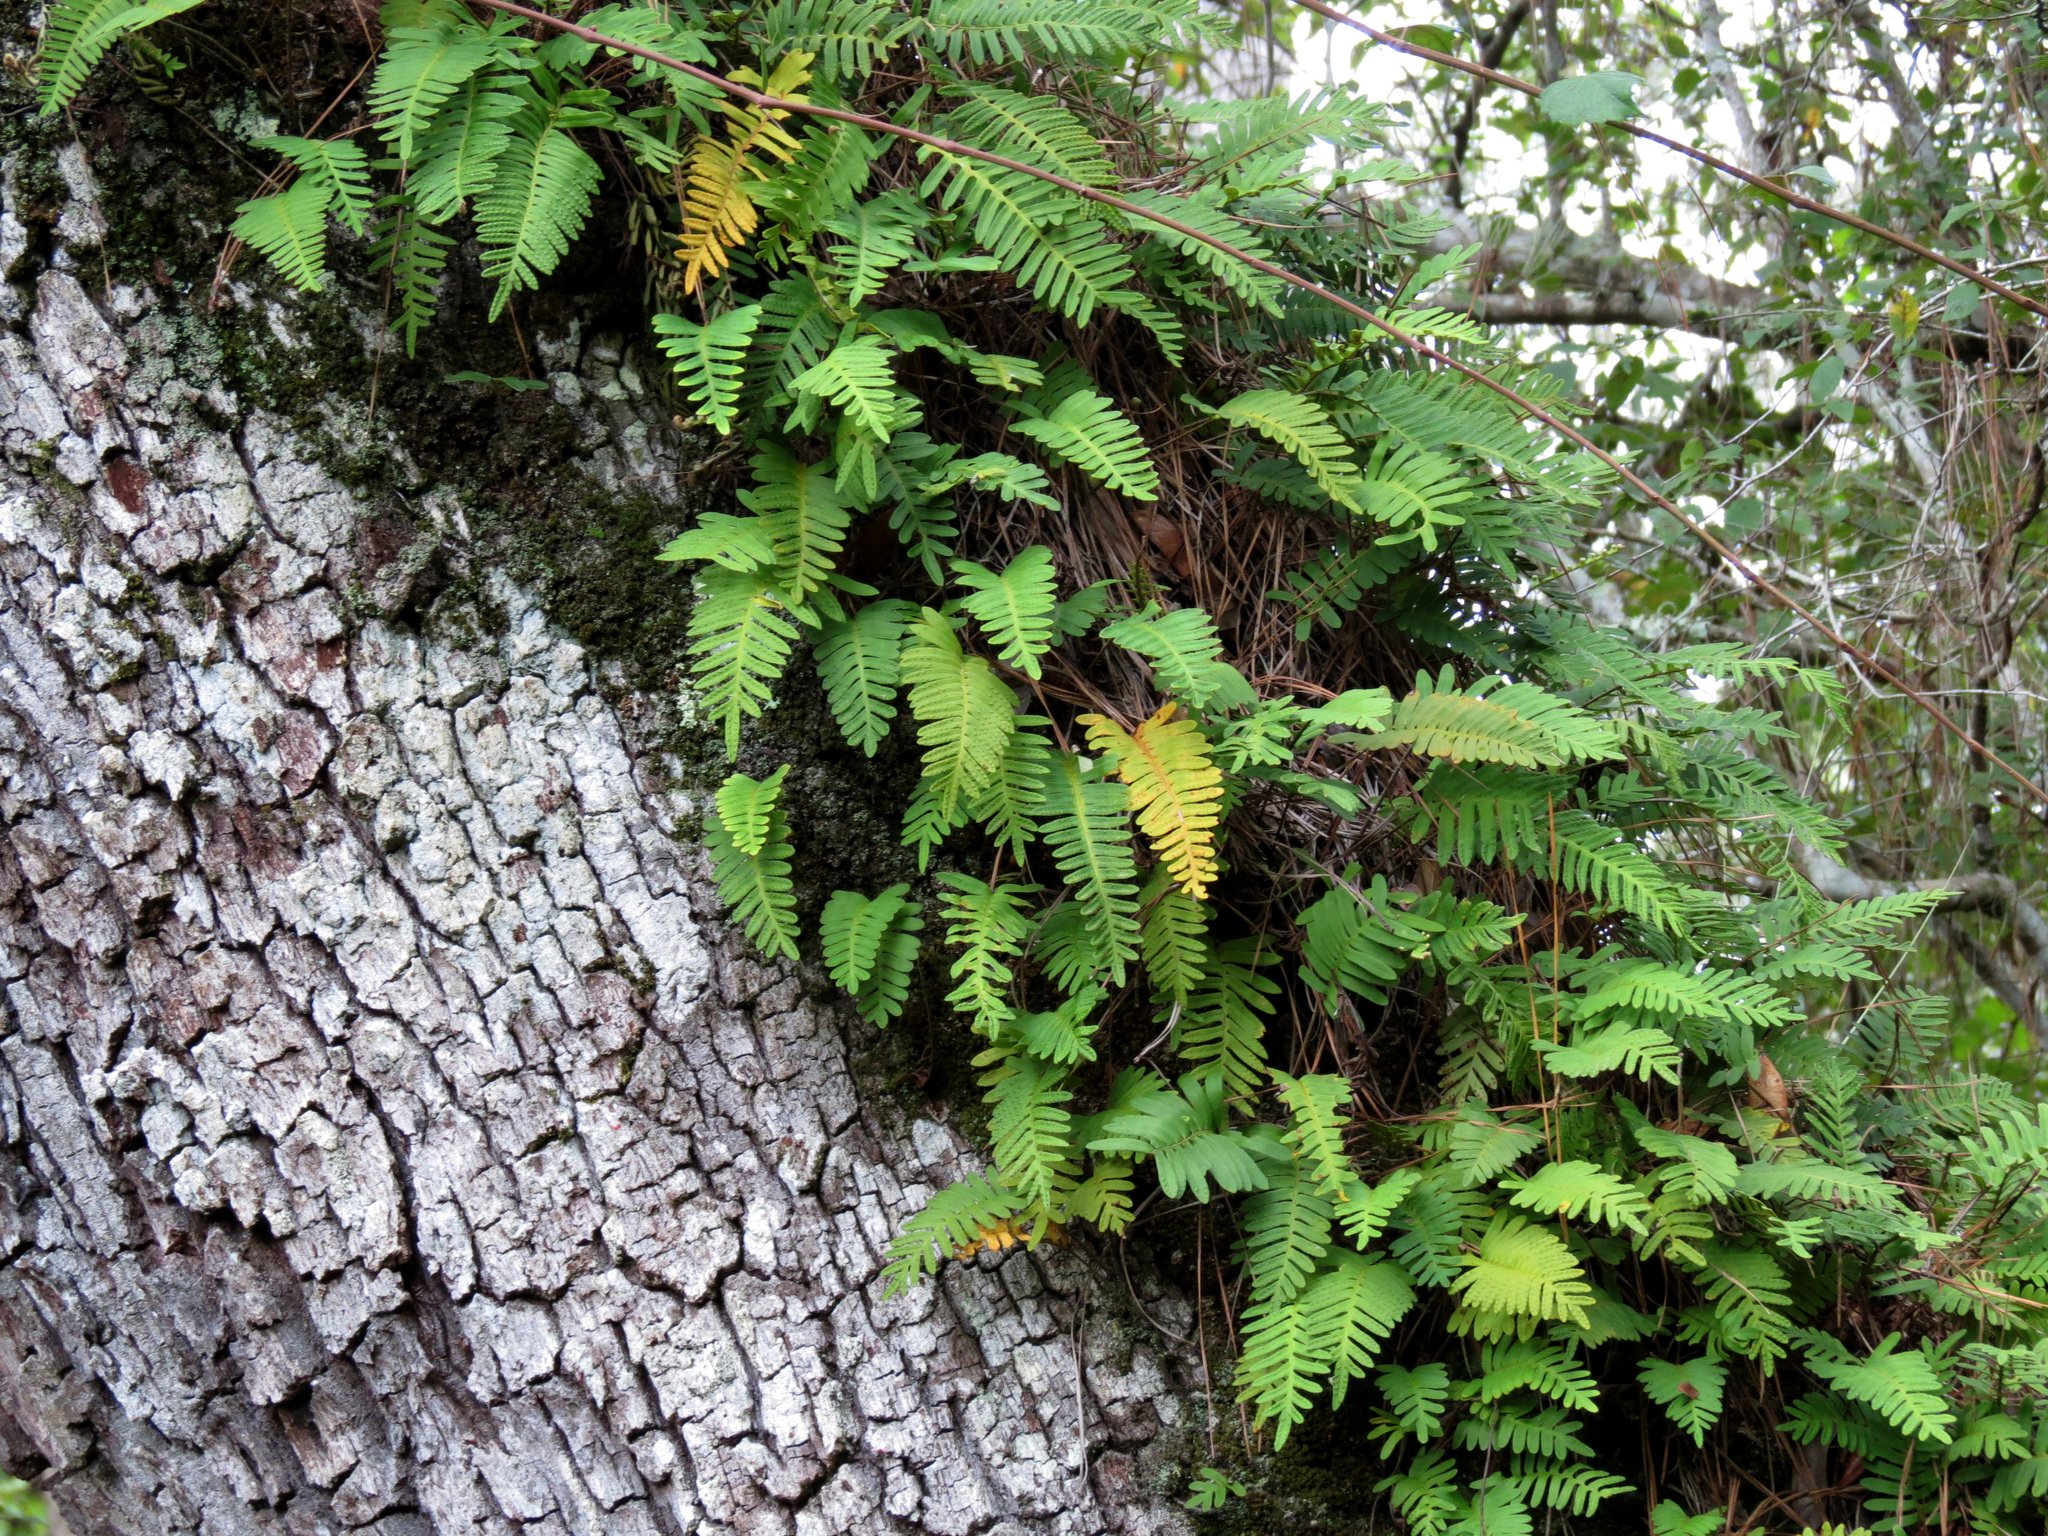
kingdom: Plantae
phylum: Tracheophyta
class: Polypodiopsida
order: Polypodiales
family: Polypodiaceae
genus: Pleopeltis
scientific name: Pleopeltis michauxiana
